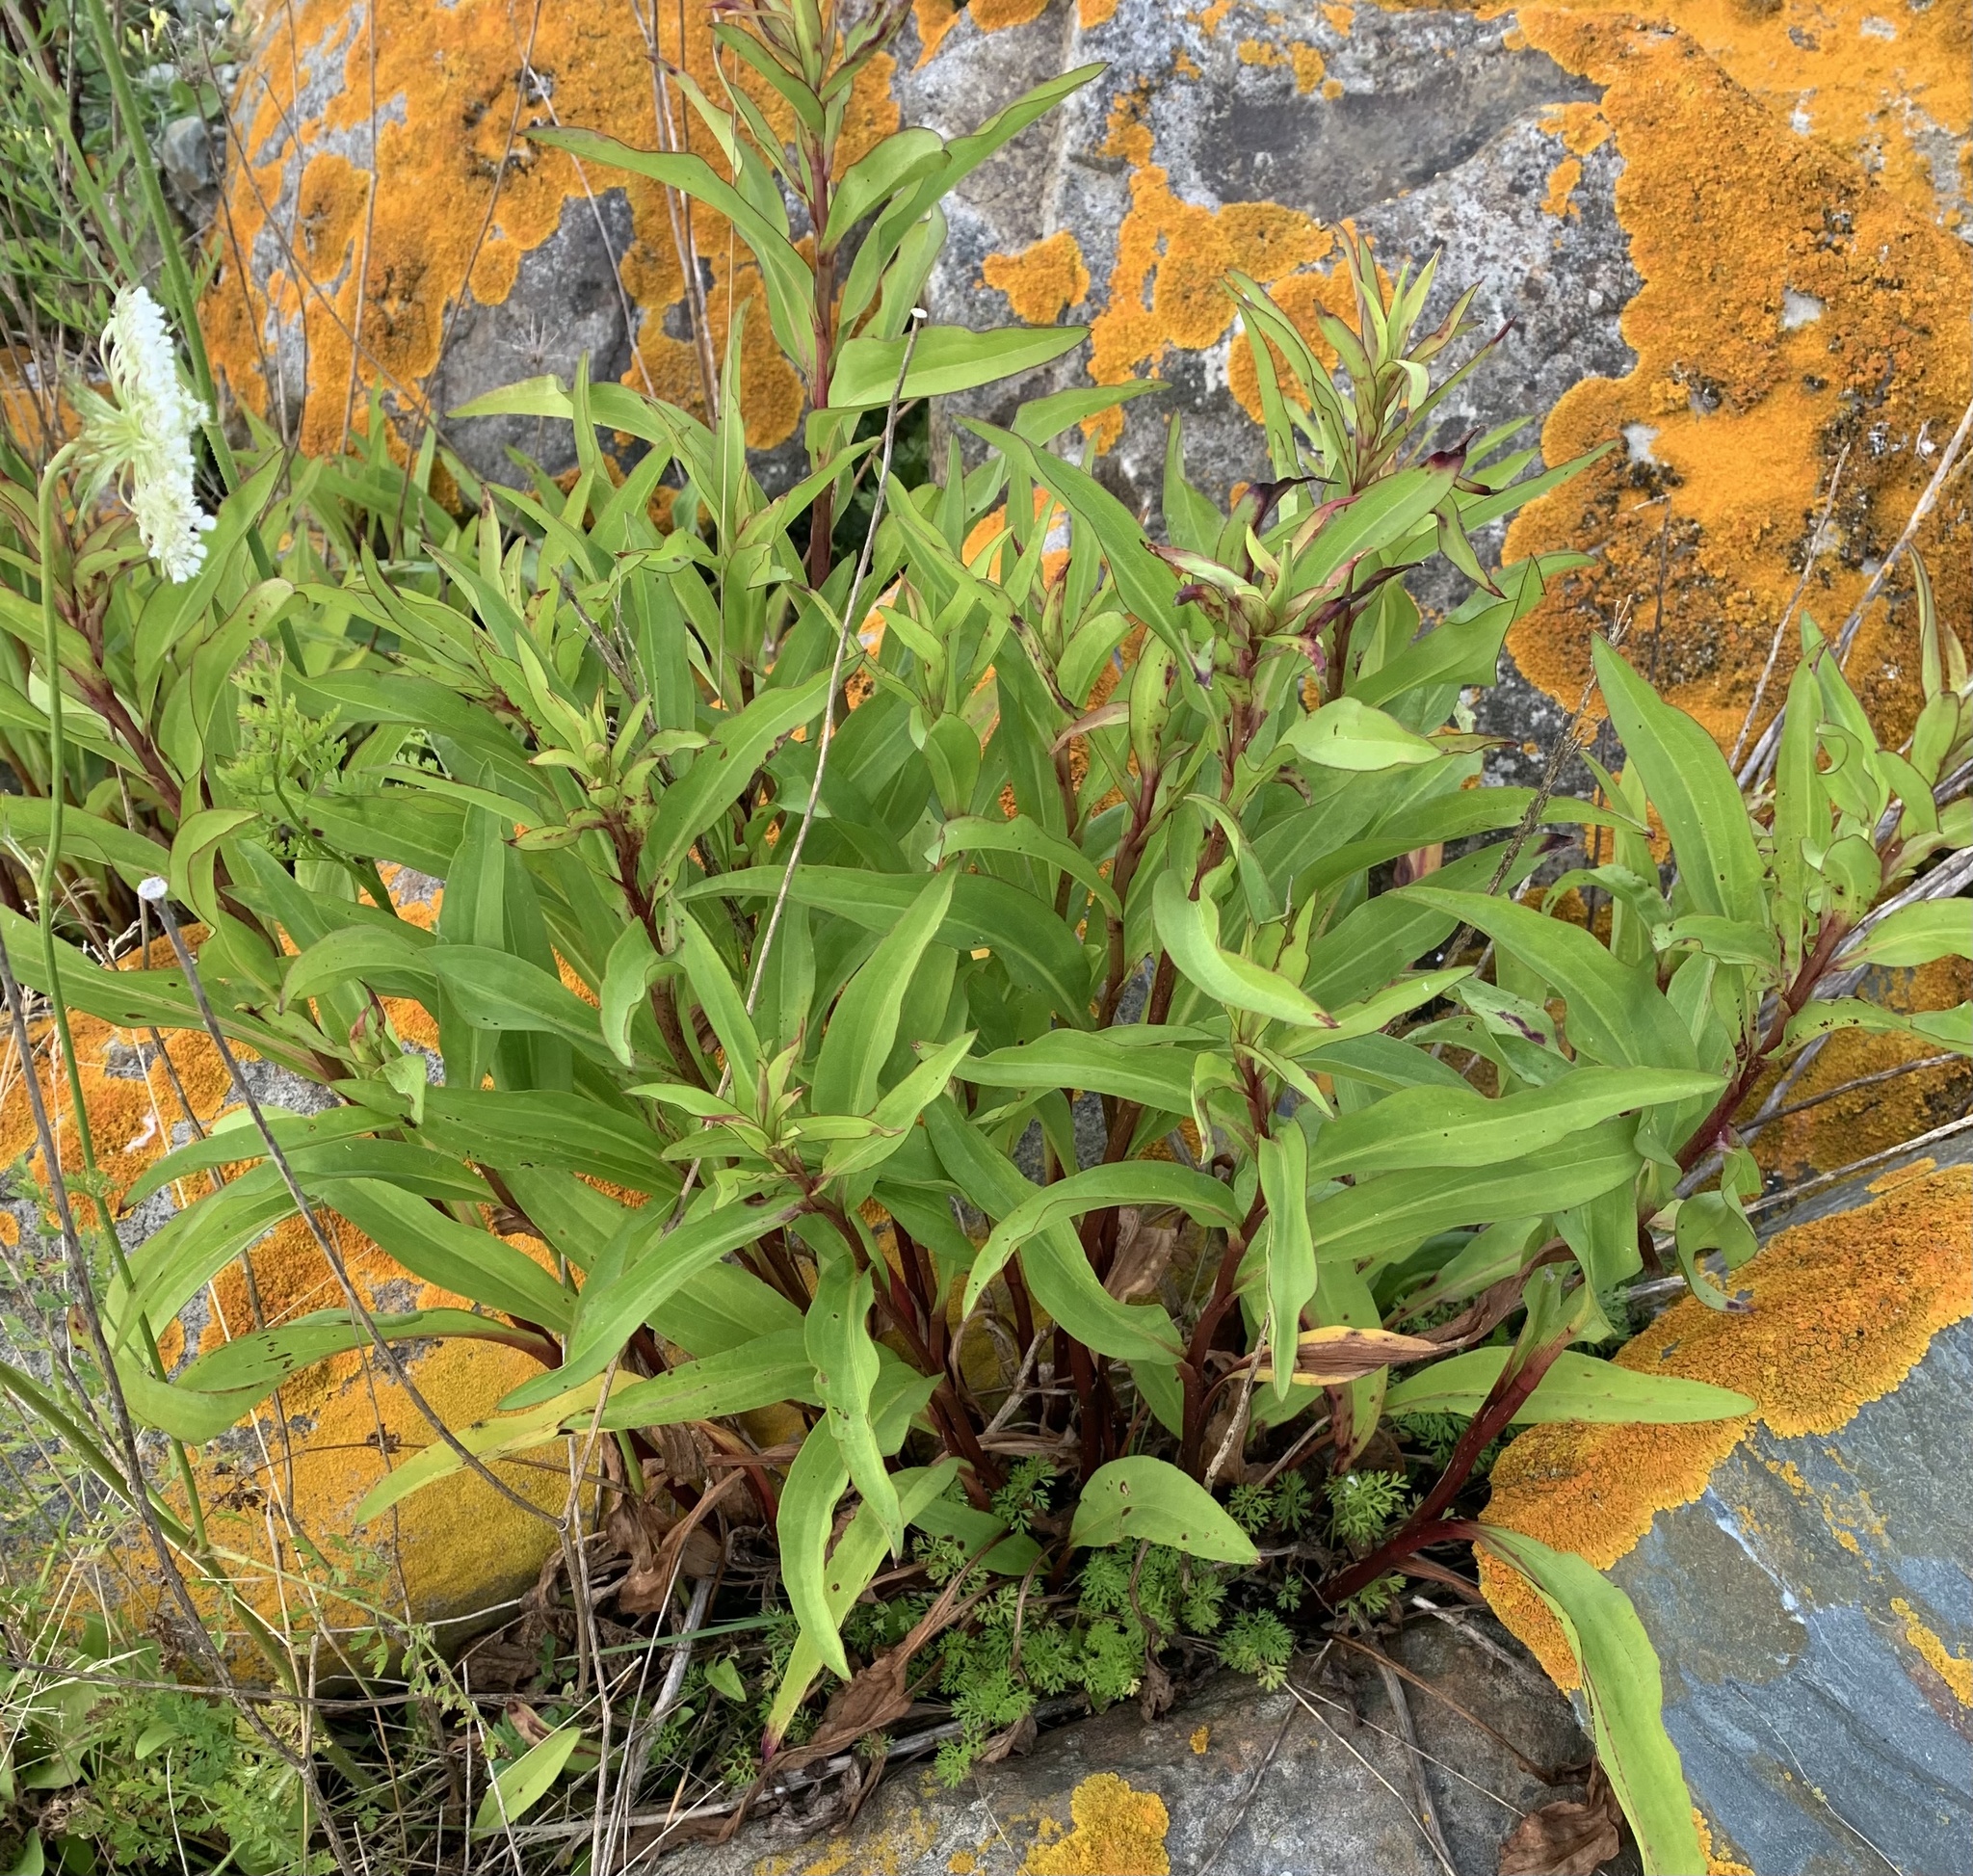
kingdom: Plantae
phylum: Tracheophyta
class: Magnoliopsida
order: Asterales
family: Asteraceae
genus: Solidago
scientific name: Solidago sempervirens
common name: Salt-marsh goldenrod
